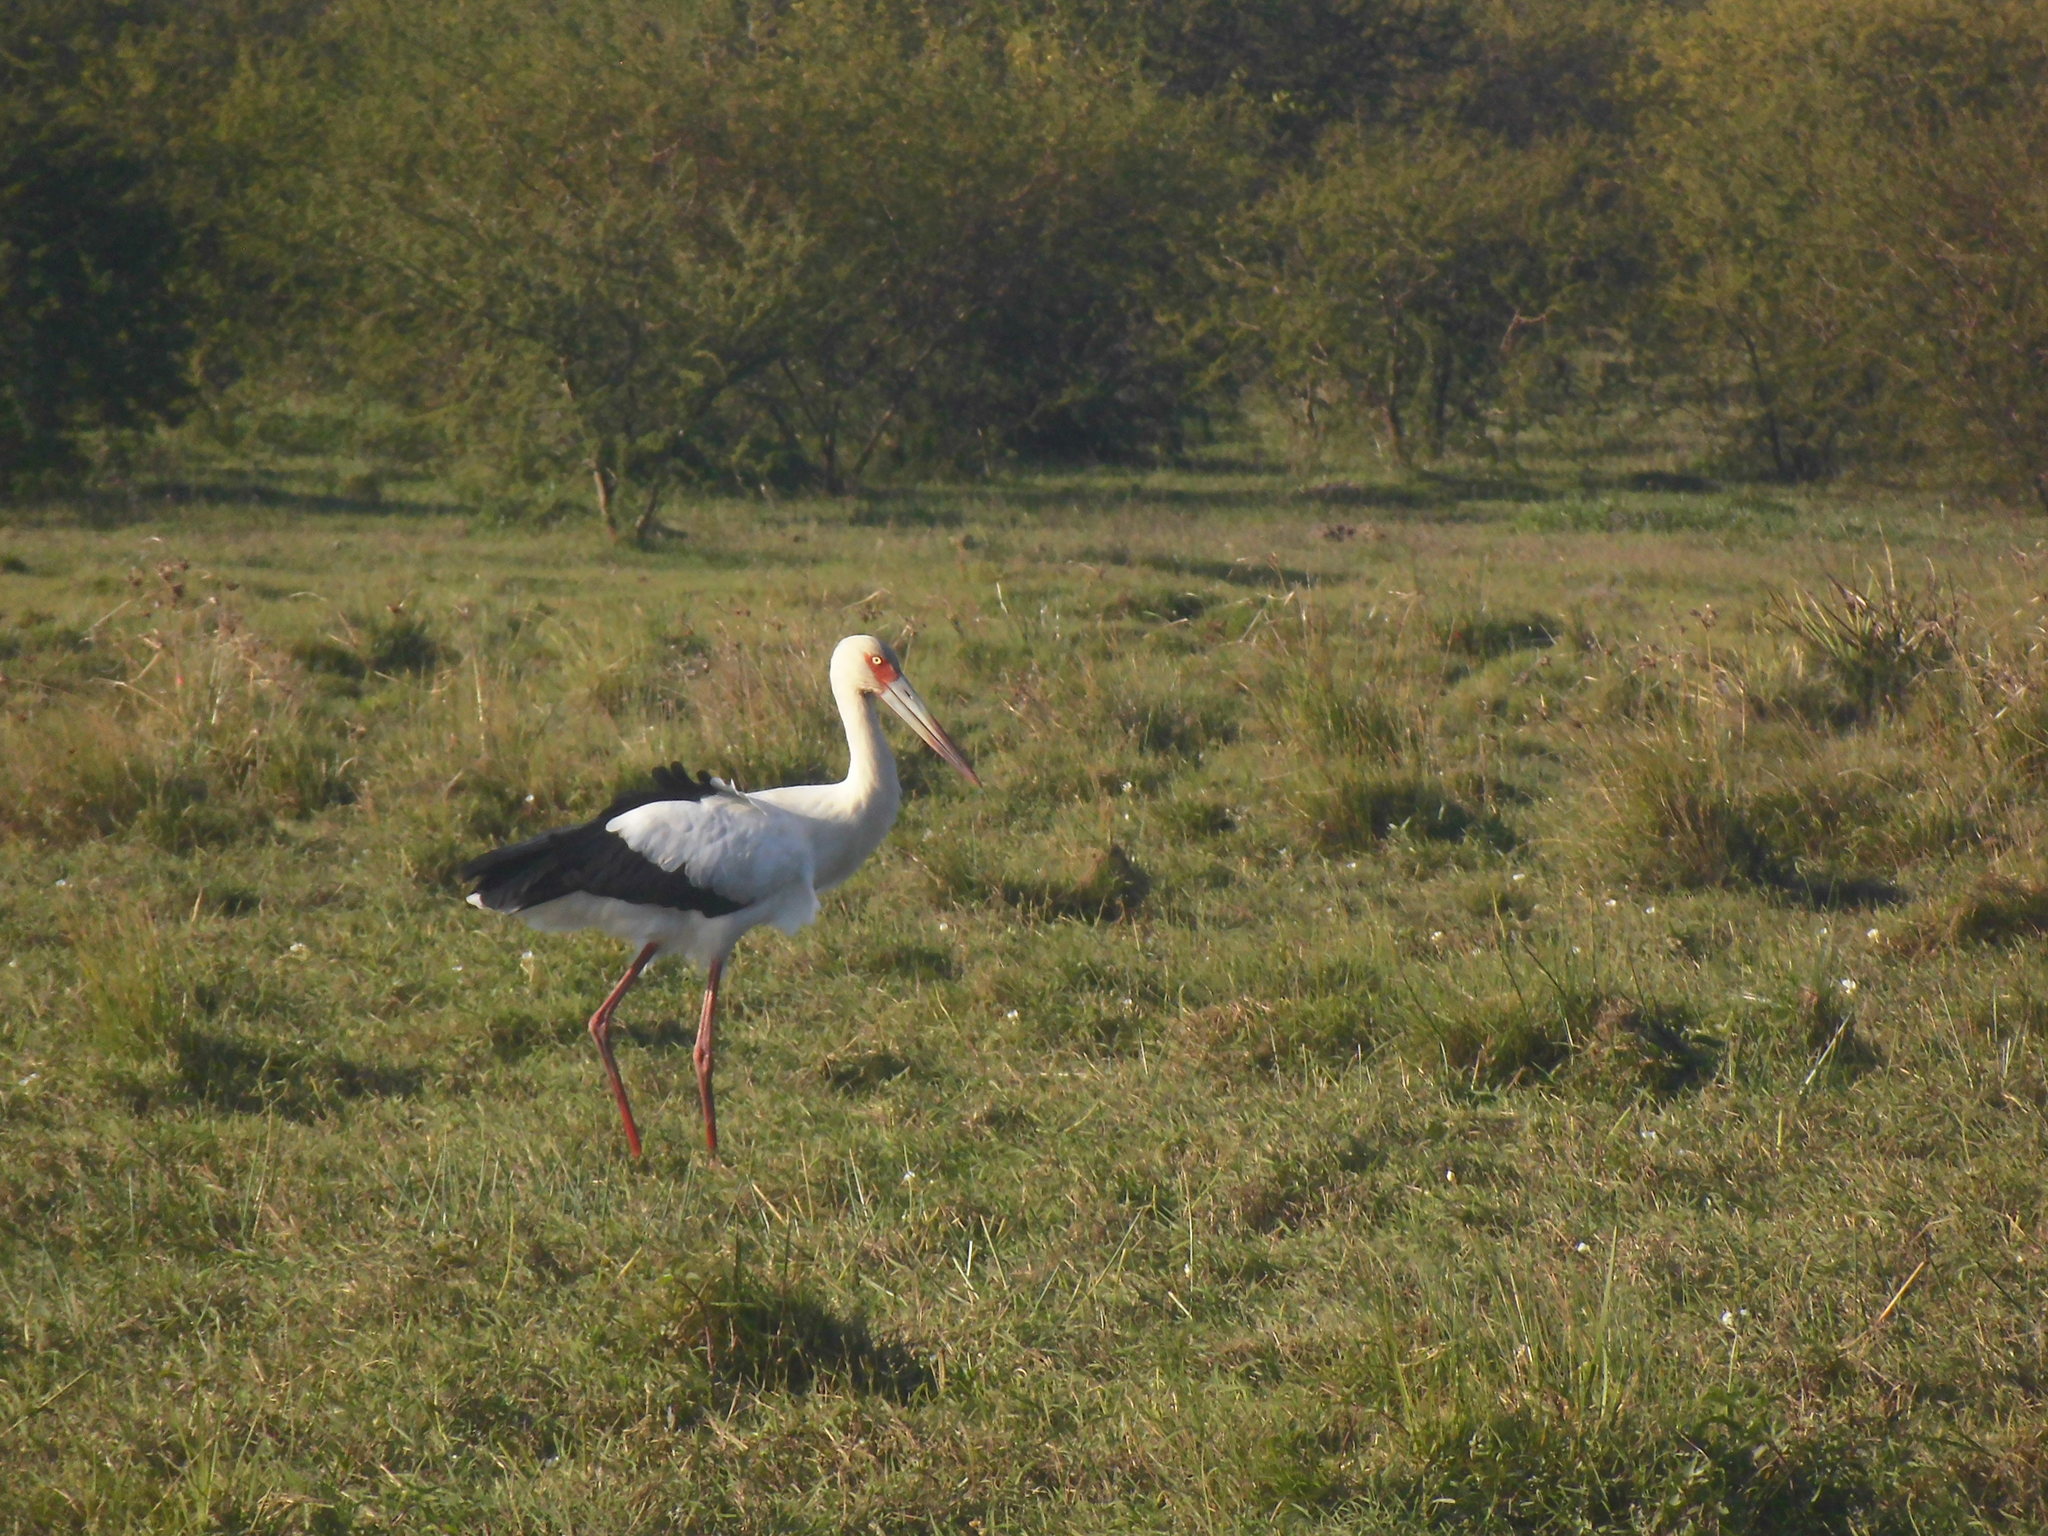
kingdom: Animalia
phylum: Chordata
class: Aves
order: Ciconiiformes
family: Ciconiidae
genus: Ciconia
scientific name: Ciconia maguari
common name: Maguari stork
